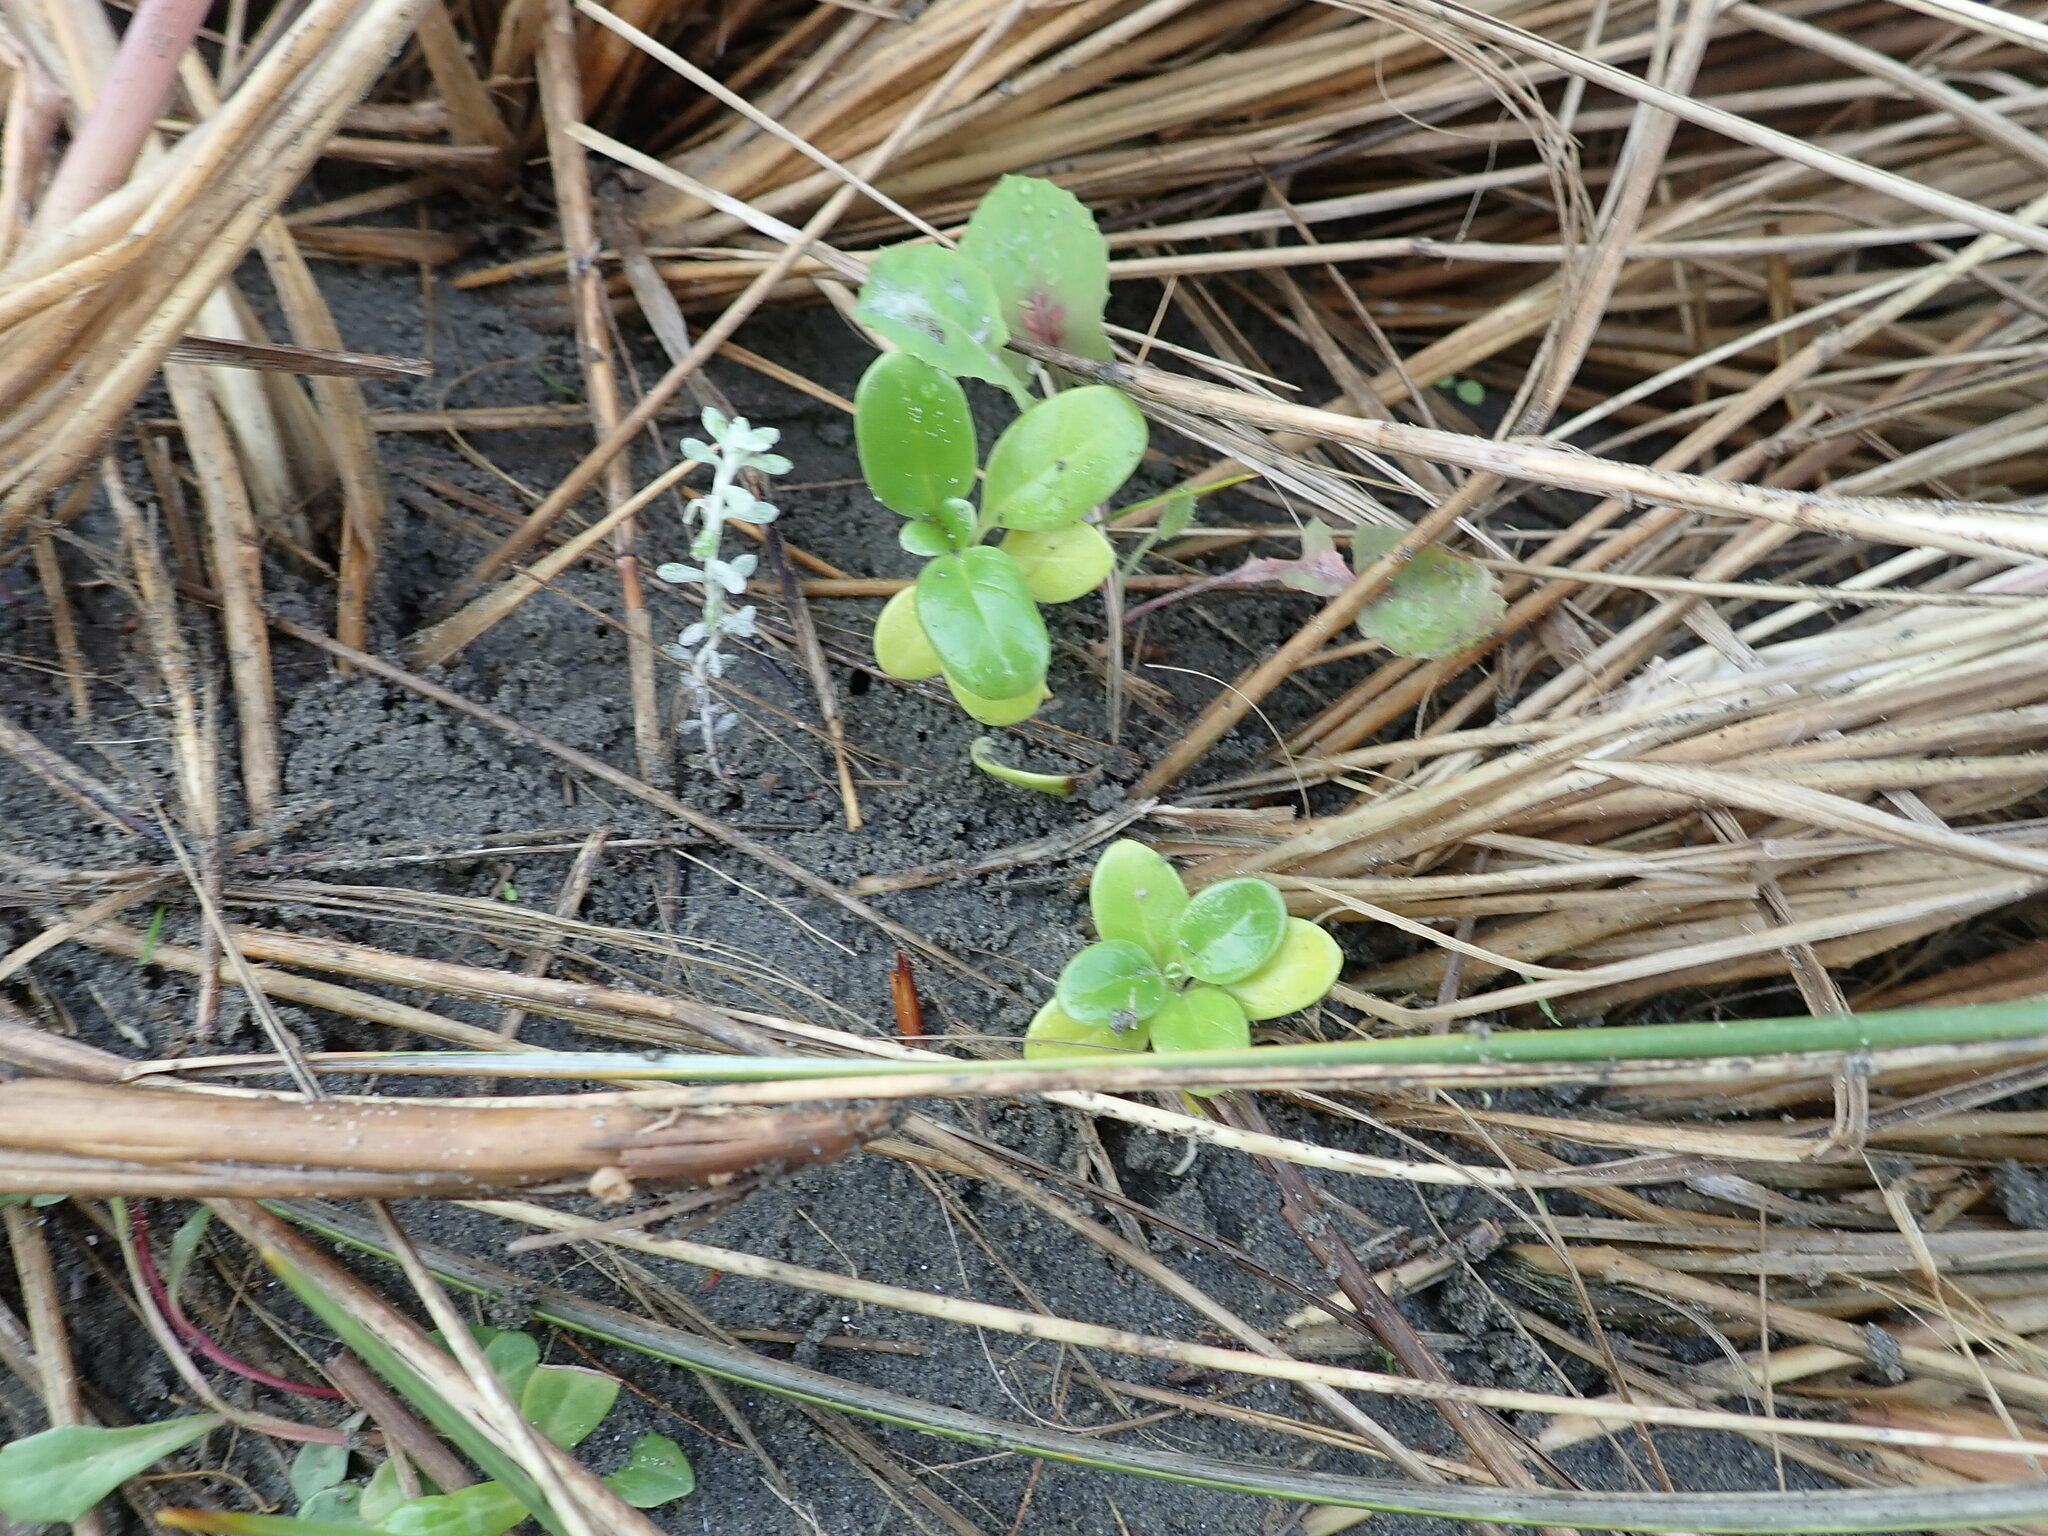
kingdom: Plantae
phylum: Tracheophyta
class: Magnoliopsida
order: Gentianales
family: Rubiaceae
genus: Coprosma
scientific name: Coprosma repens
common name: Tree bedstraw
